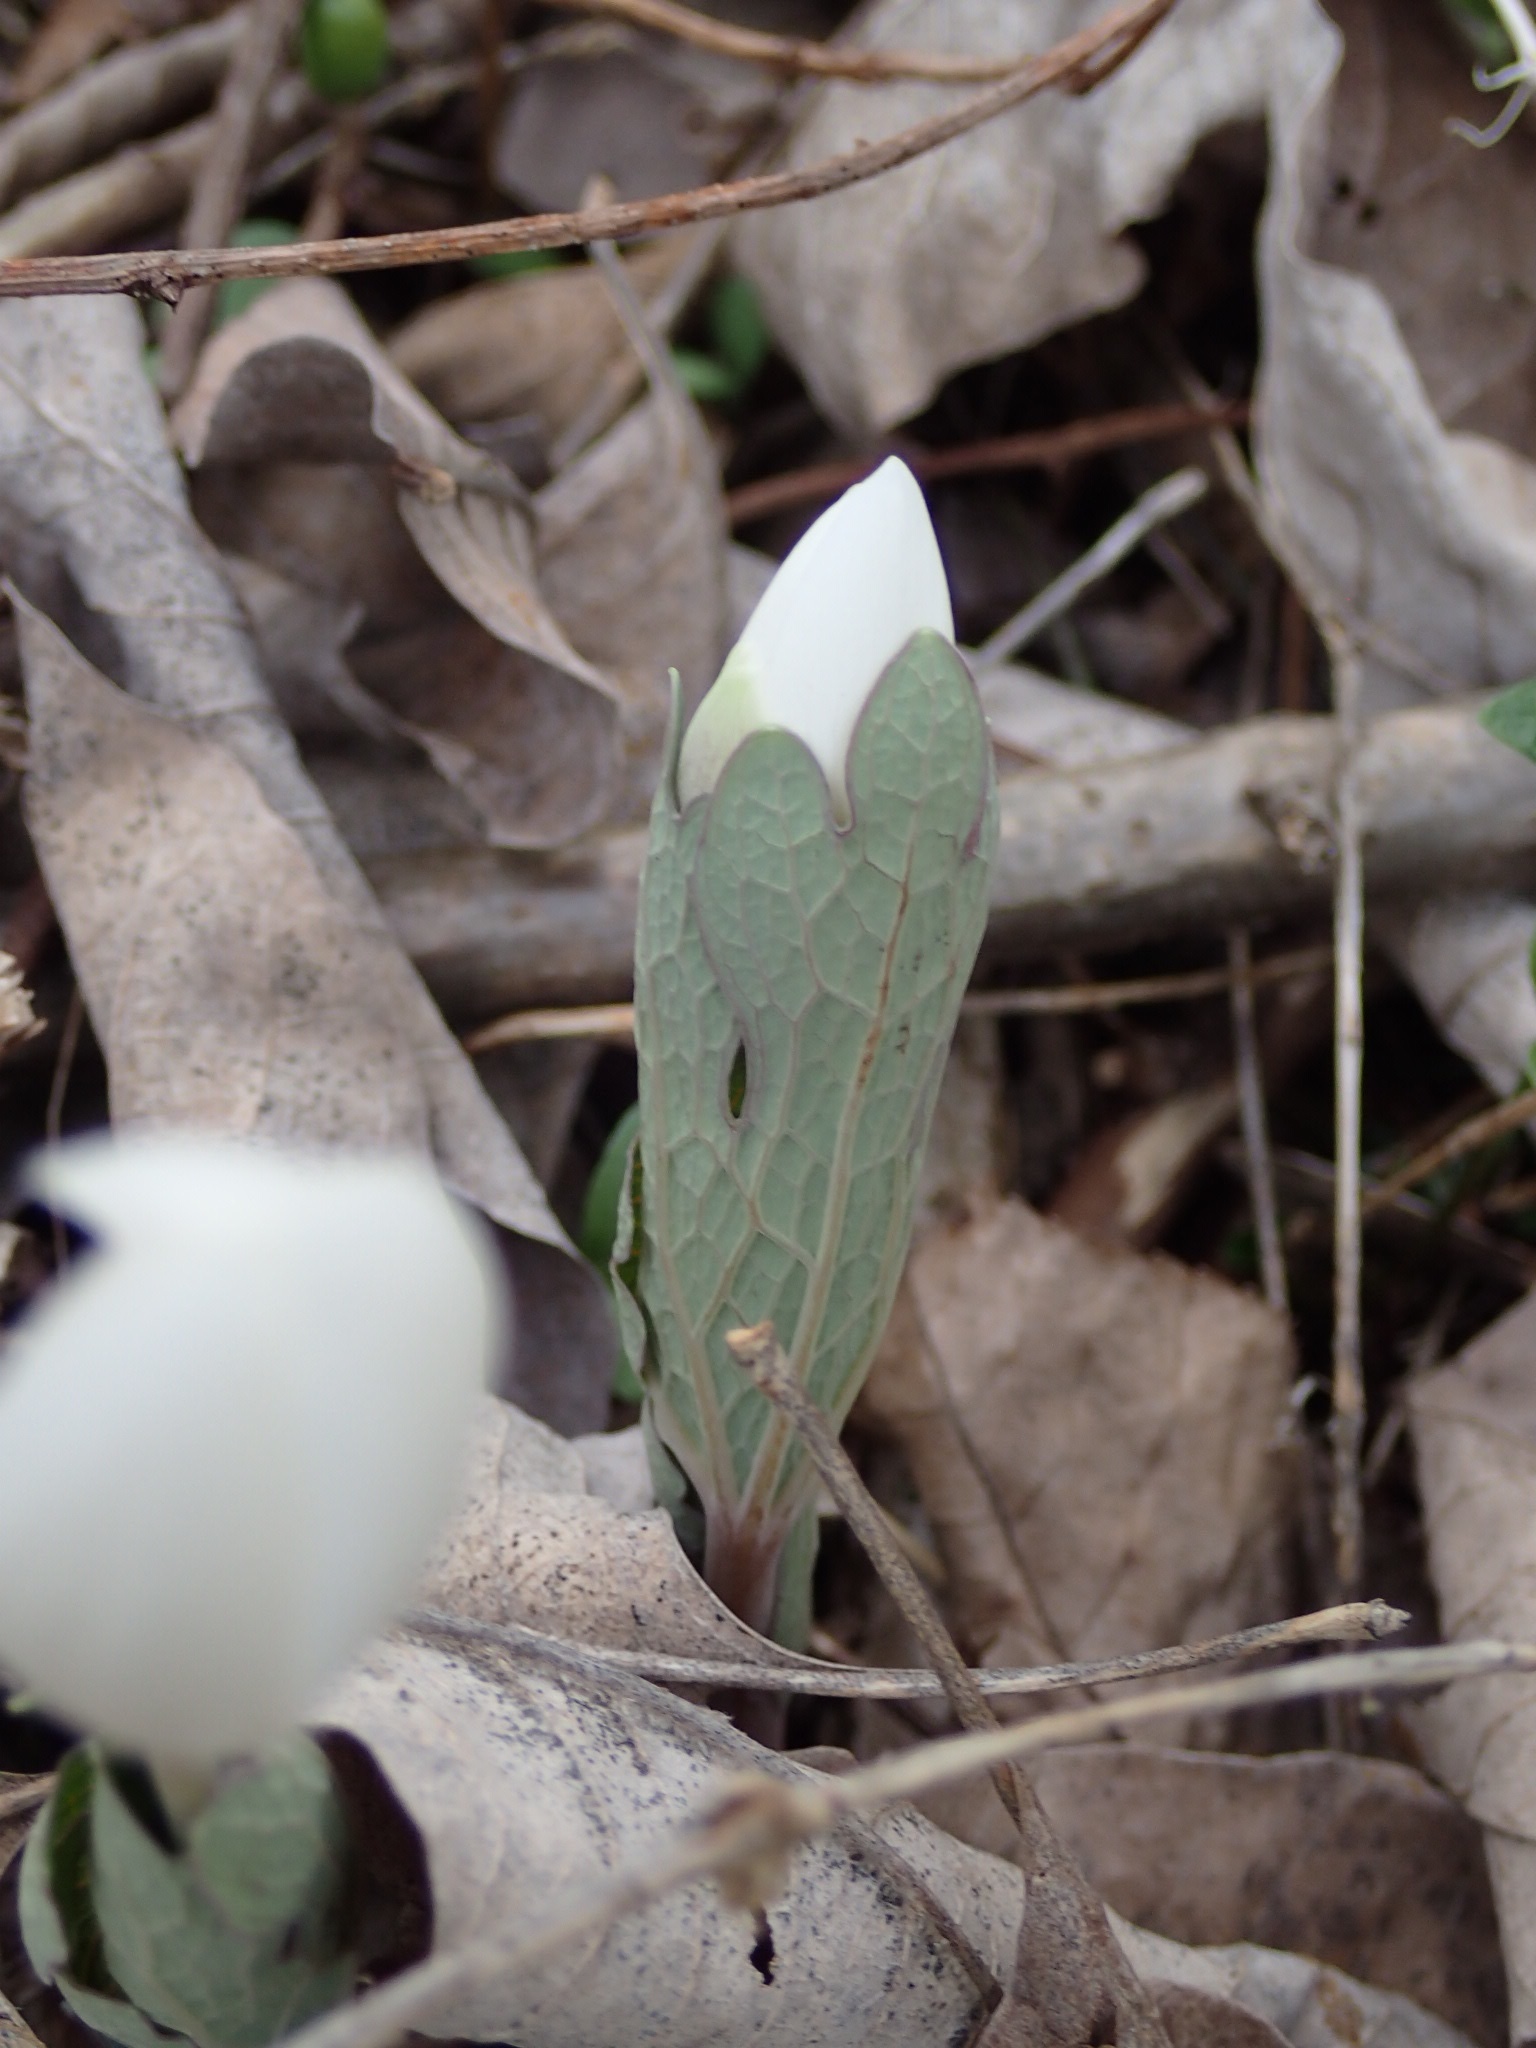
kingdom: Plantae
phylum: Tracheophyta
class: Magnoliopsida
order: Ranunculales
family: Papaveraceae
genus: Sanguinaria
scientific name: Sanguinaria canadensis
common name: Bloodroot
